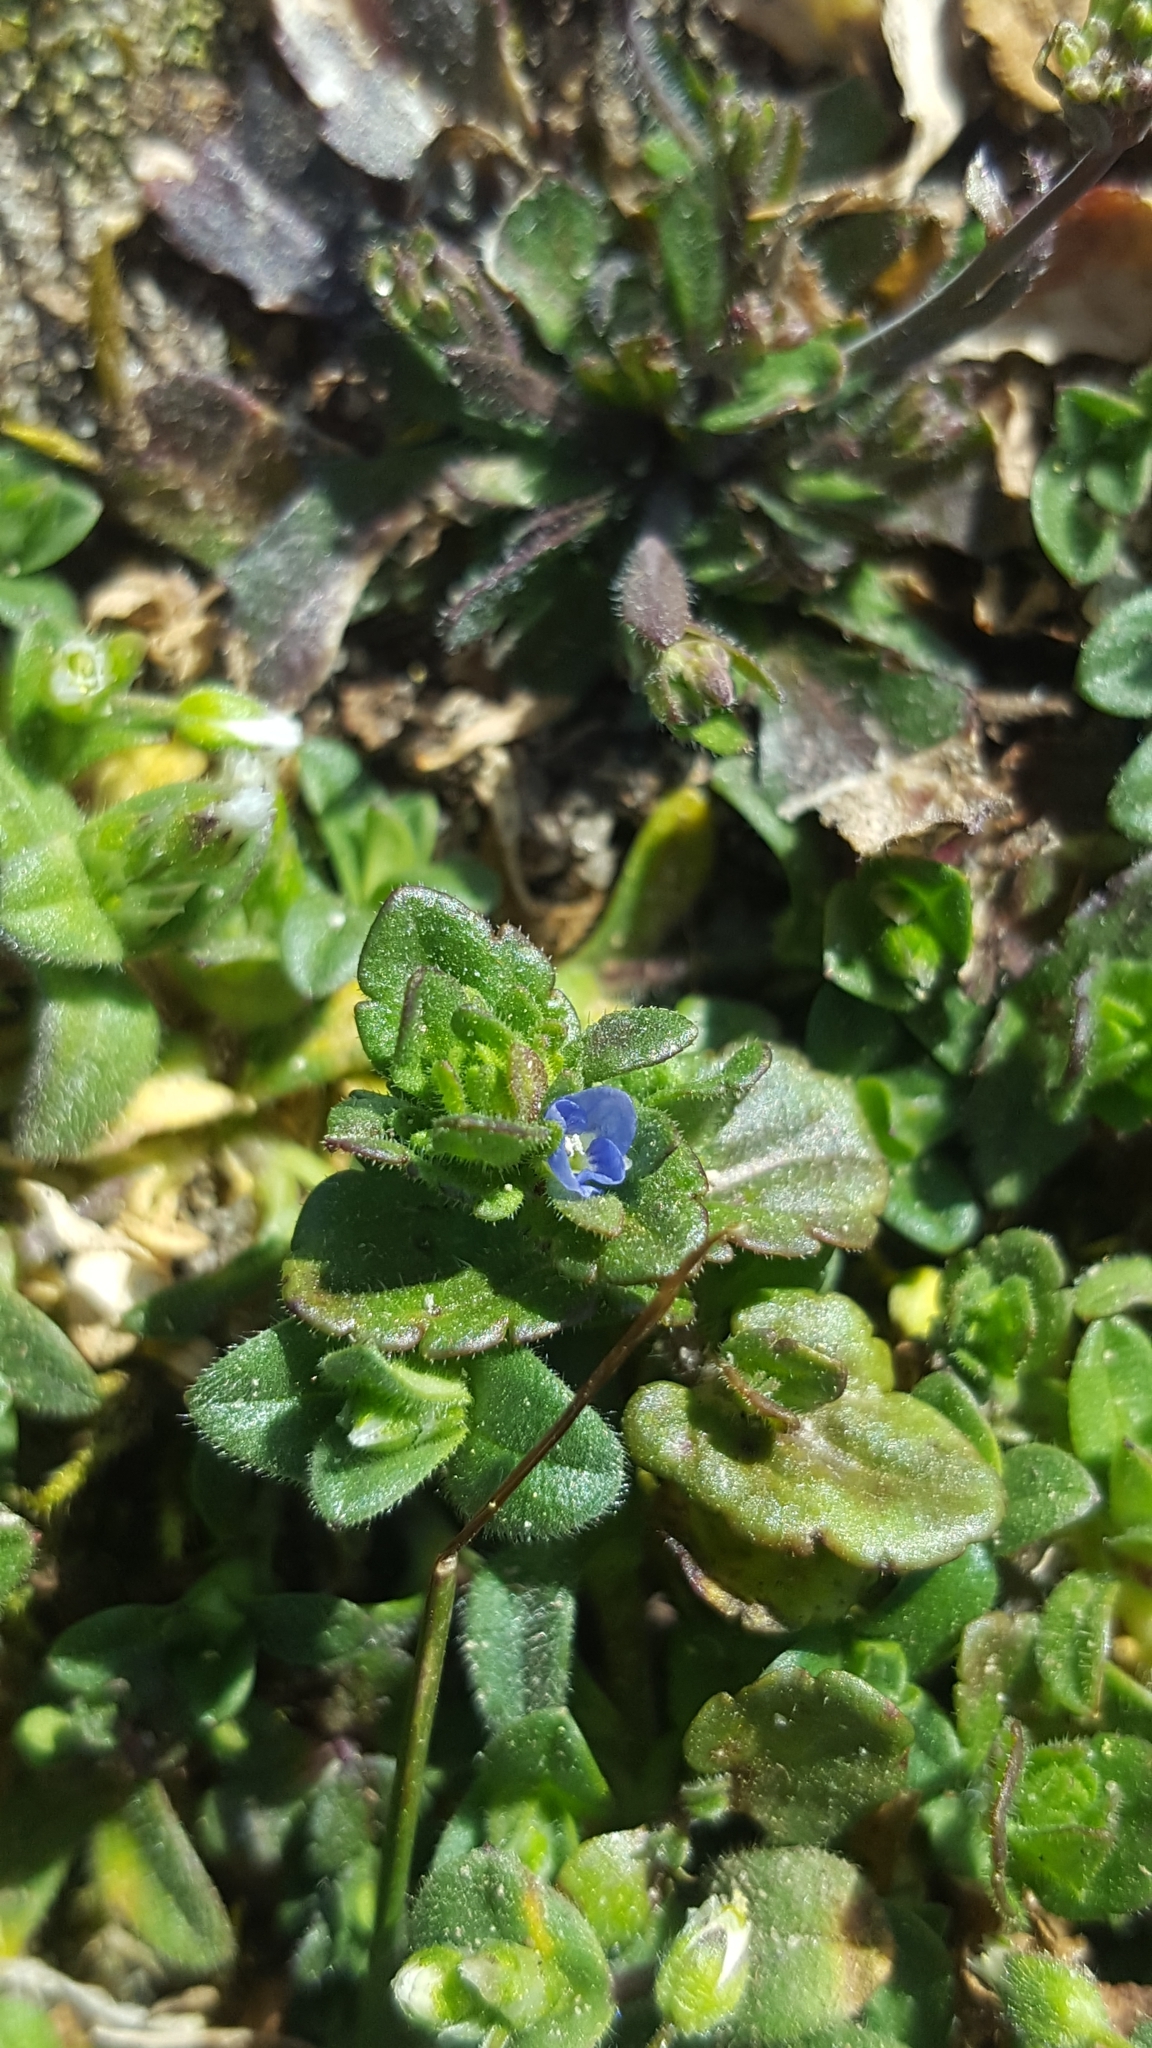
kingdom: Plantae
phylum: Tracheophyta
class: Magnoliopsida
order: Lamiales
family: Plantaginaceae
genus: Veronica
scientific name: Veronica arvensis
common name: Corn speedwell
